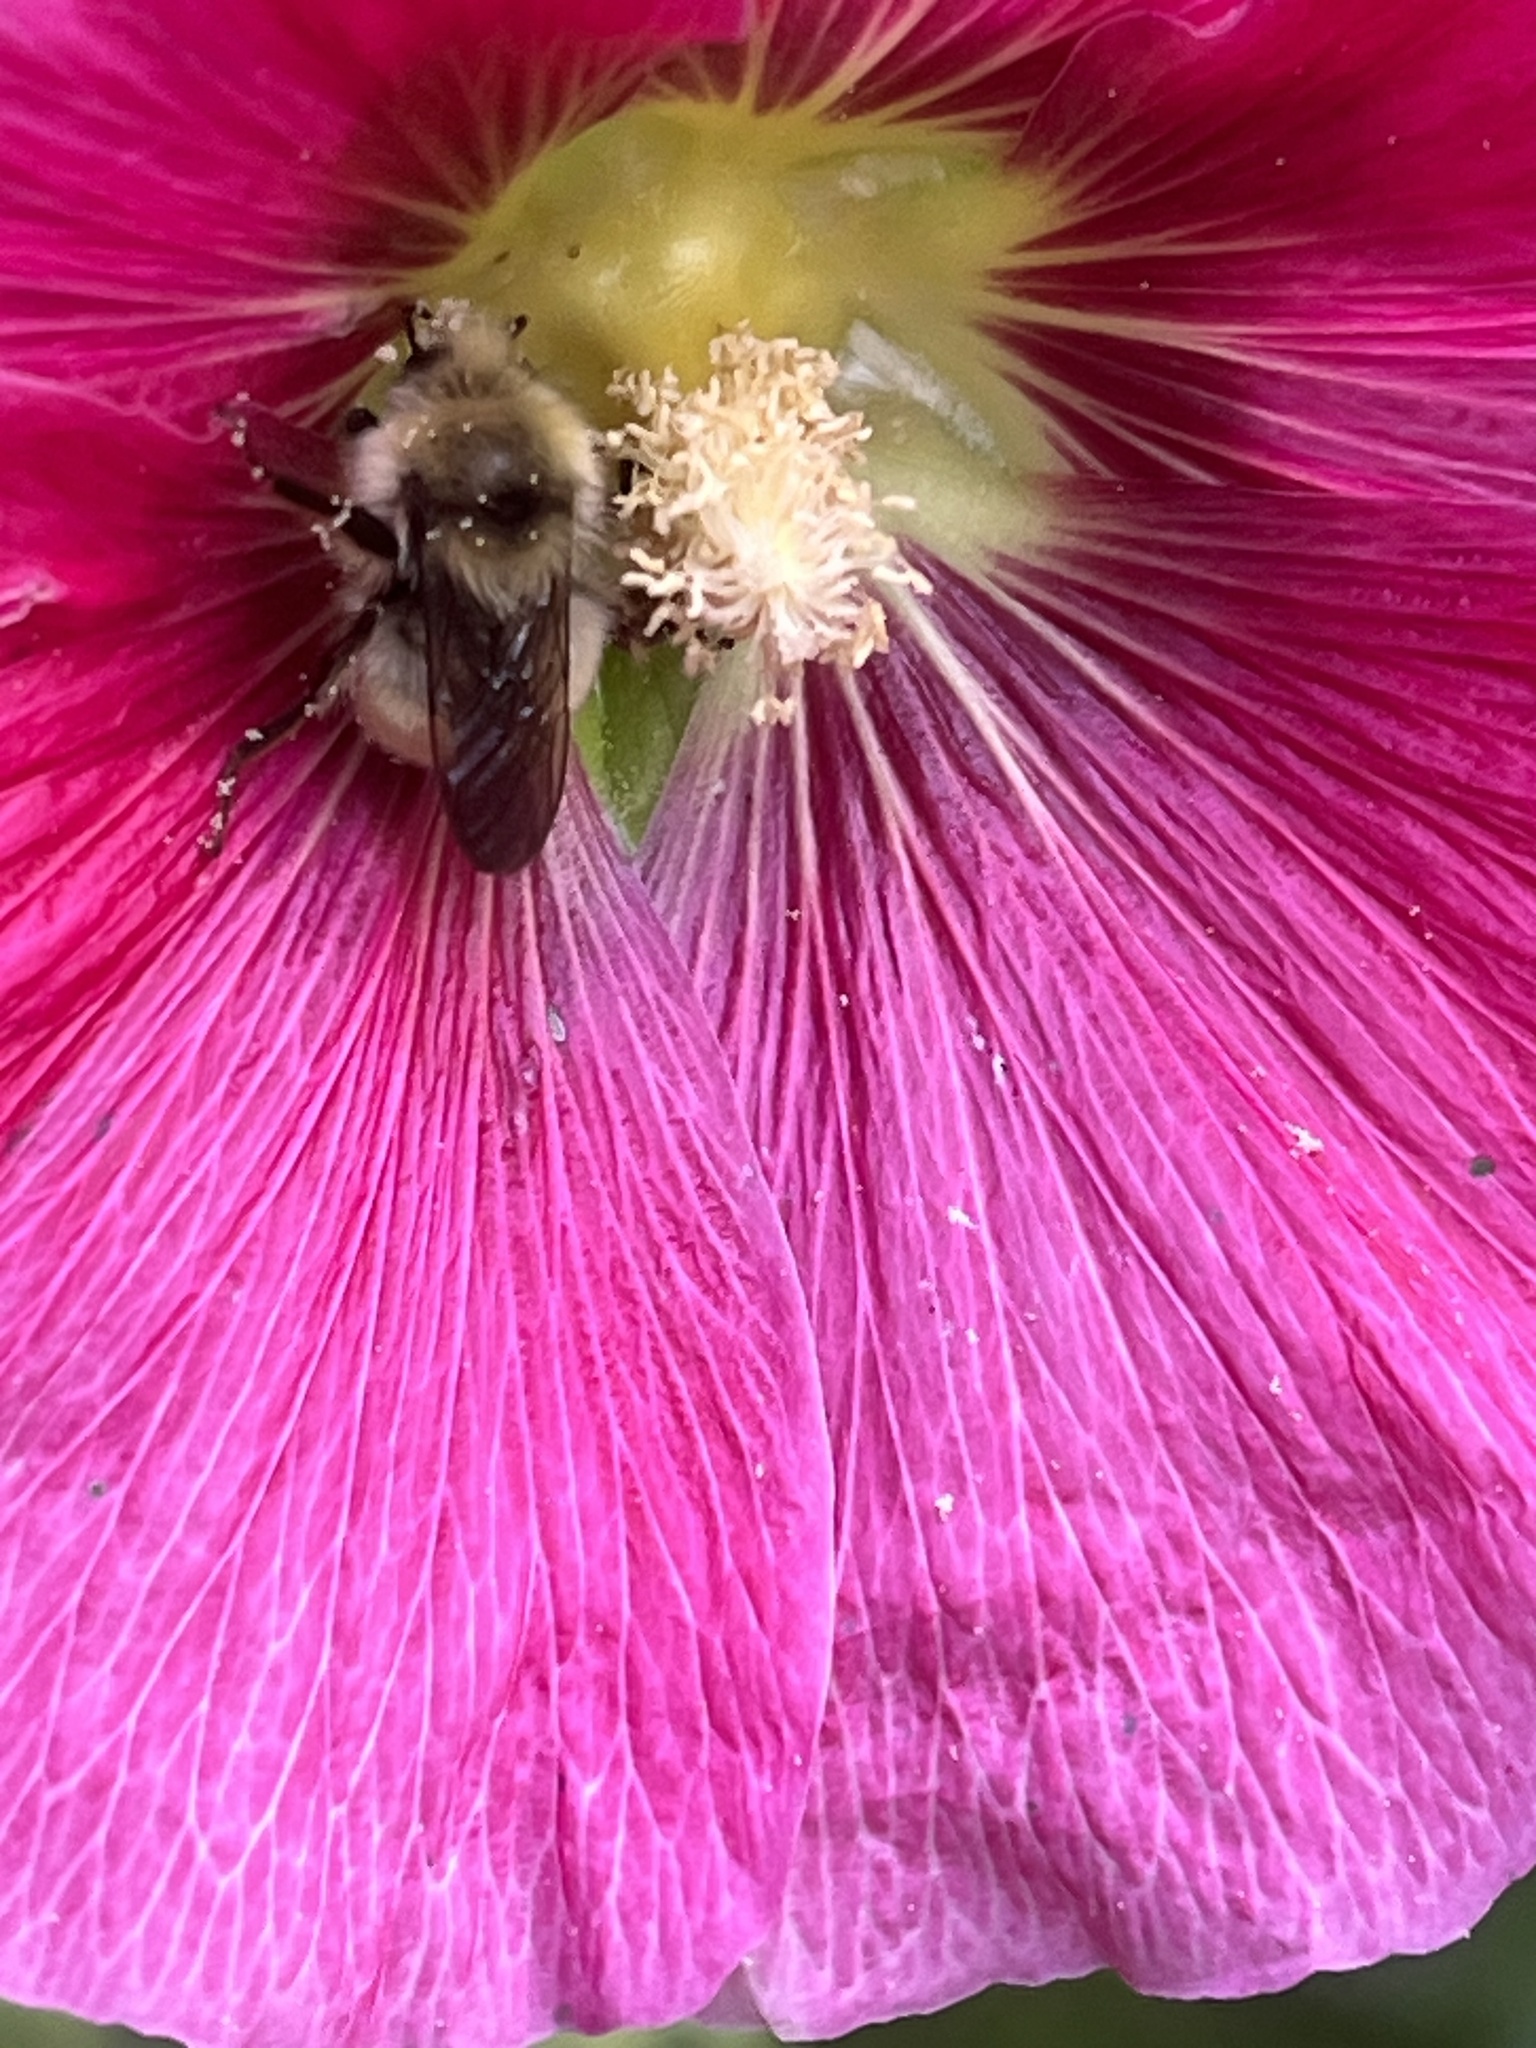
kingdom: Animalia
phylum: Arthropoda
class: Insecta
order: Hymenoptera
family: Apidae
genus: Bombus
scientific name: Bombus flavifrons
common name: Yellow head bumble bee
